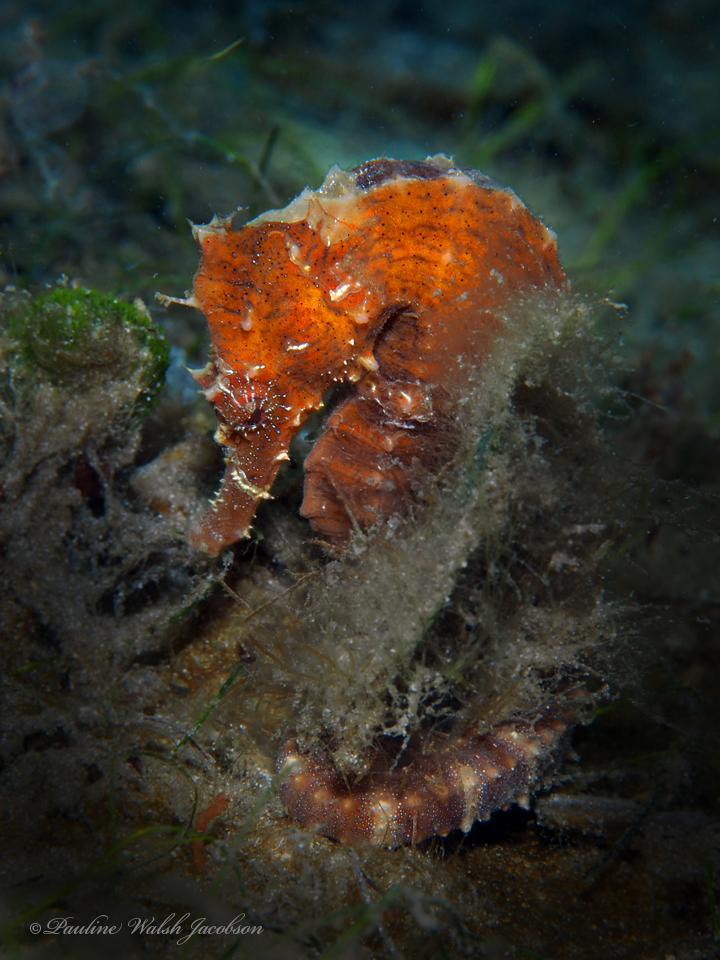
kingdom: Animalia
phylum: Chordata
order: Syngnathiformes
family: Syngnathidae
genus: Hippocampus
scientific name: Hippocampus erectus
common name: Lined seahorse
